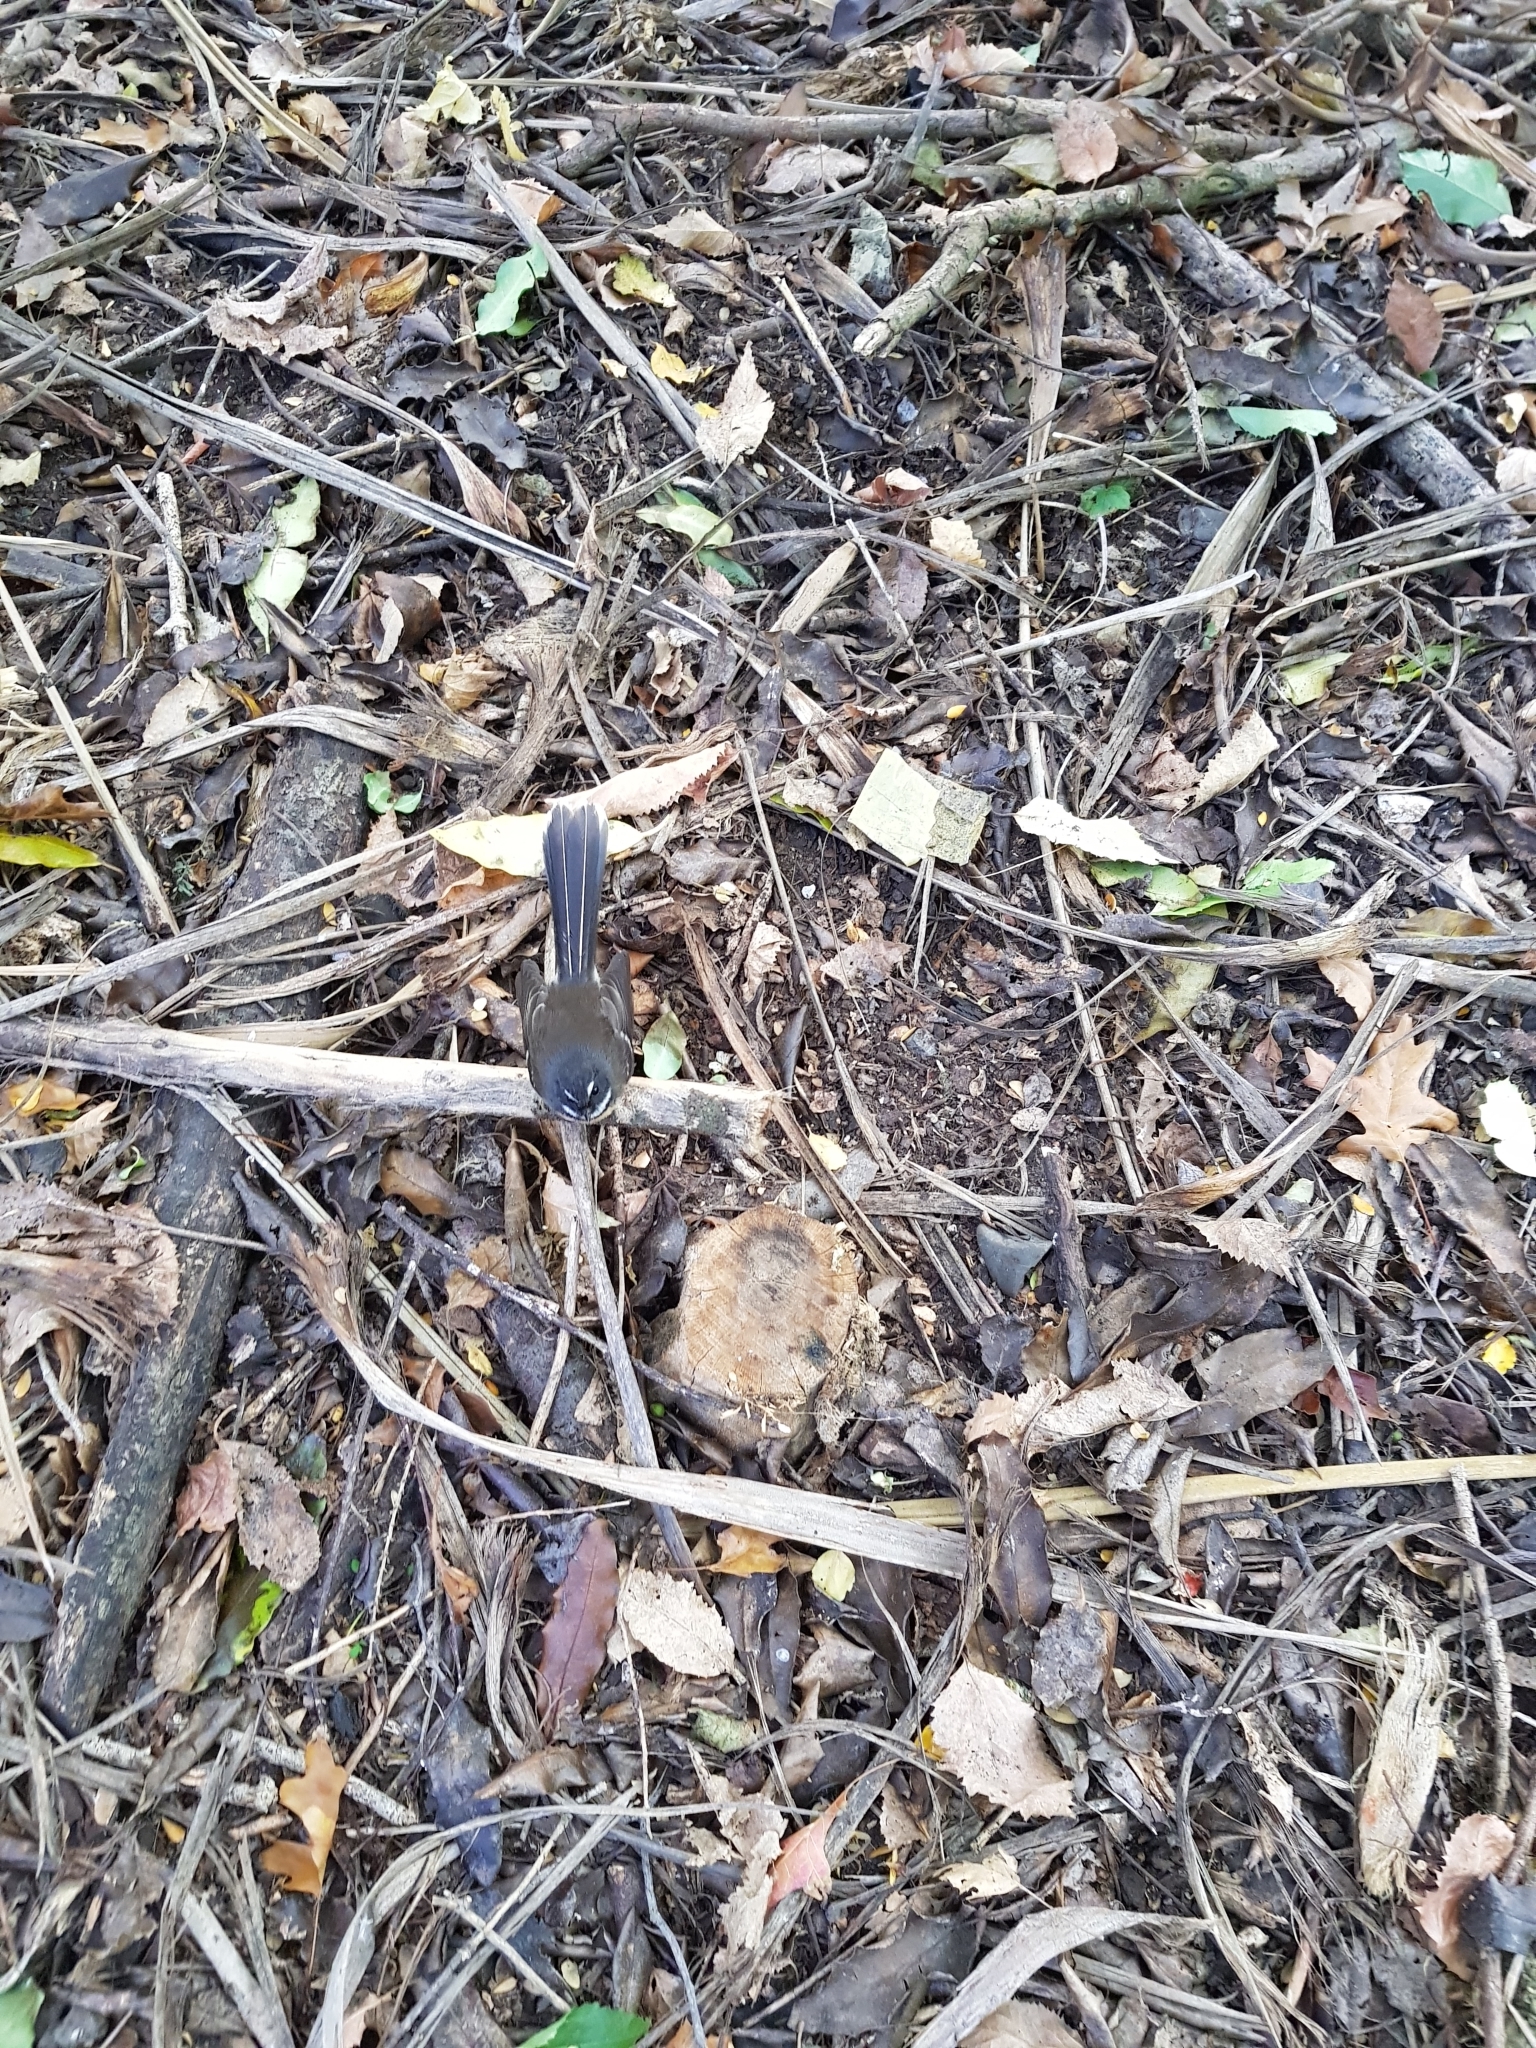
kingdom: Animalia
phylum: Chordata
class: Aves
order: Passeriformes
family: Rhipiduridae
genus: Rhipidura
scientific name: Rhipidura fuliginosa
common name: New zealand fantail
